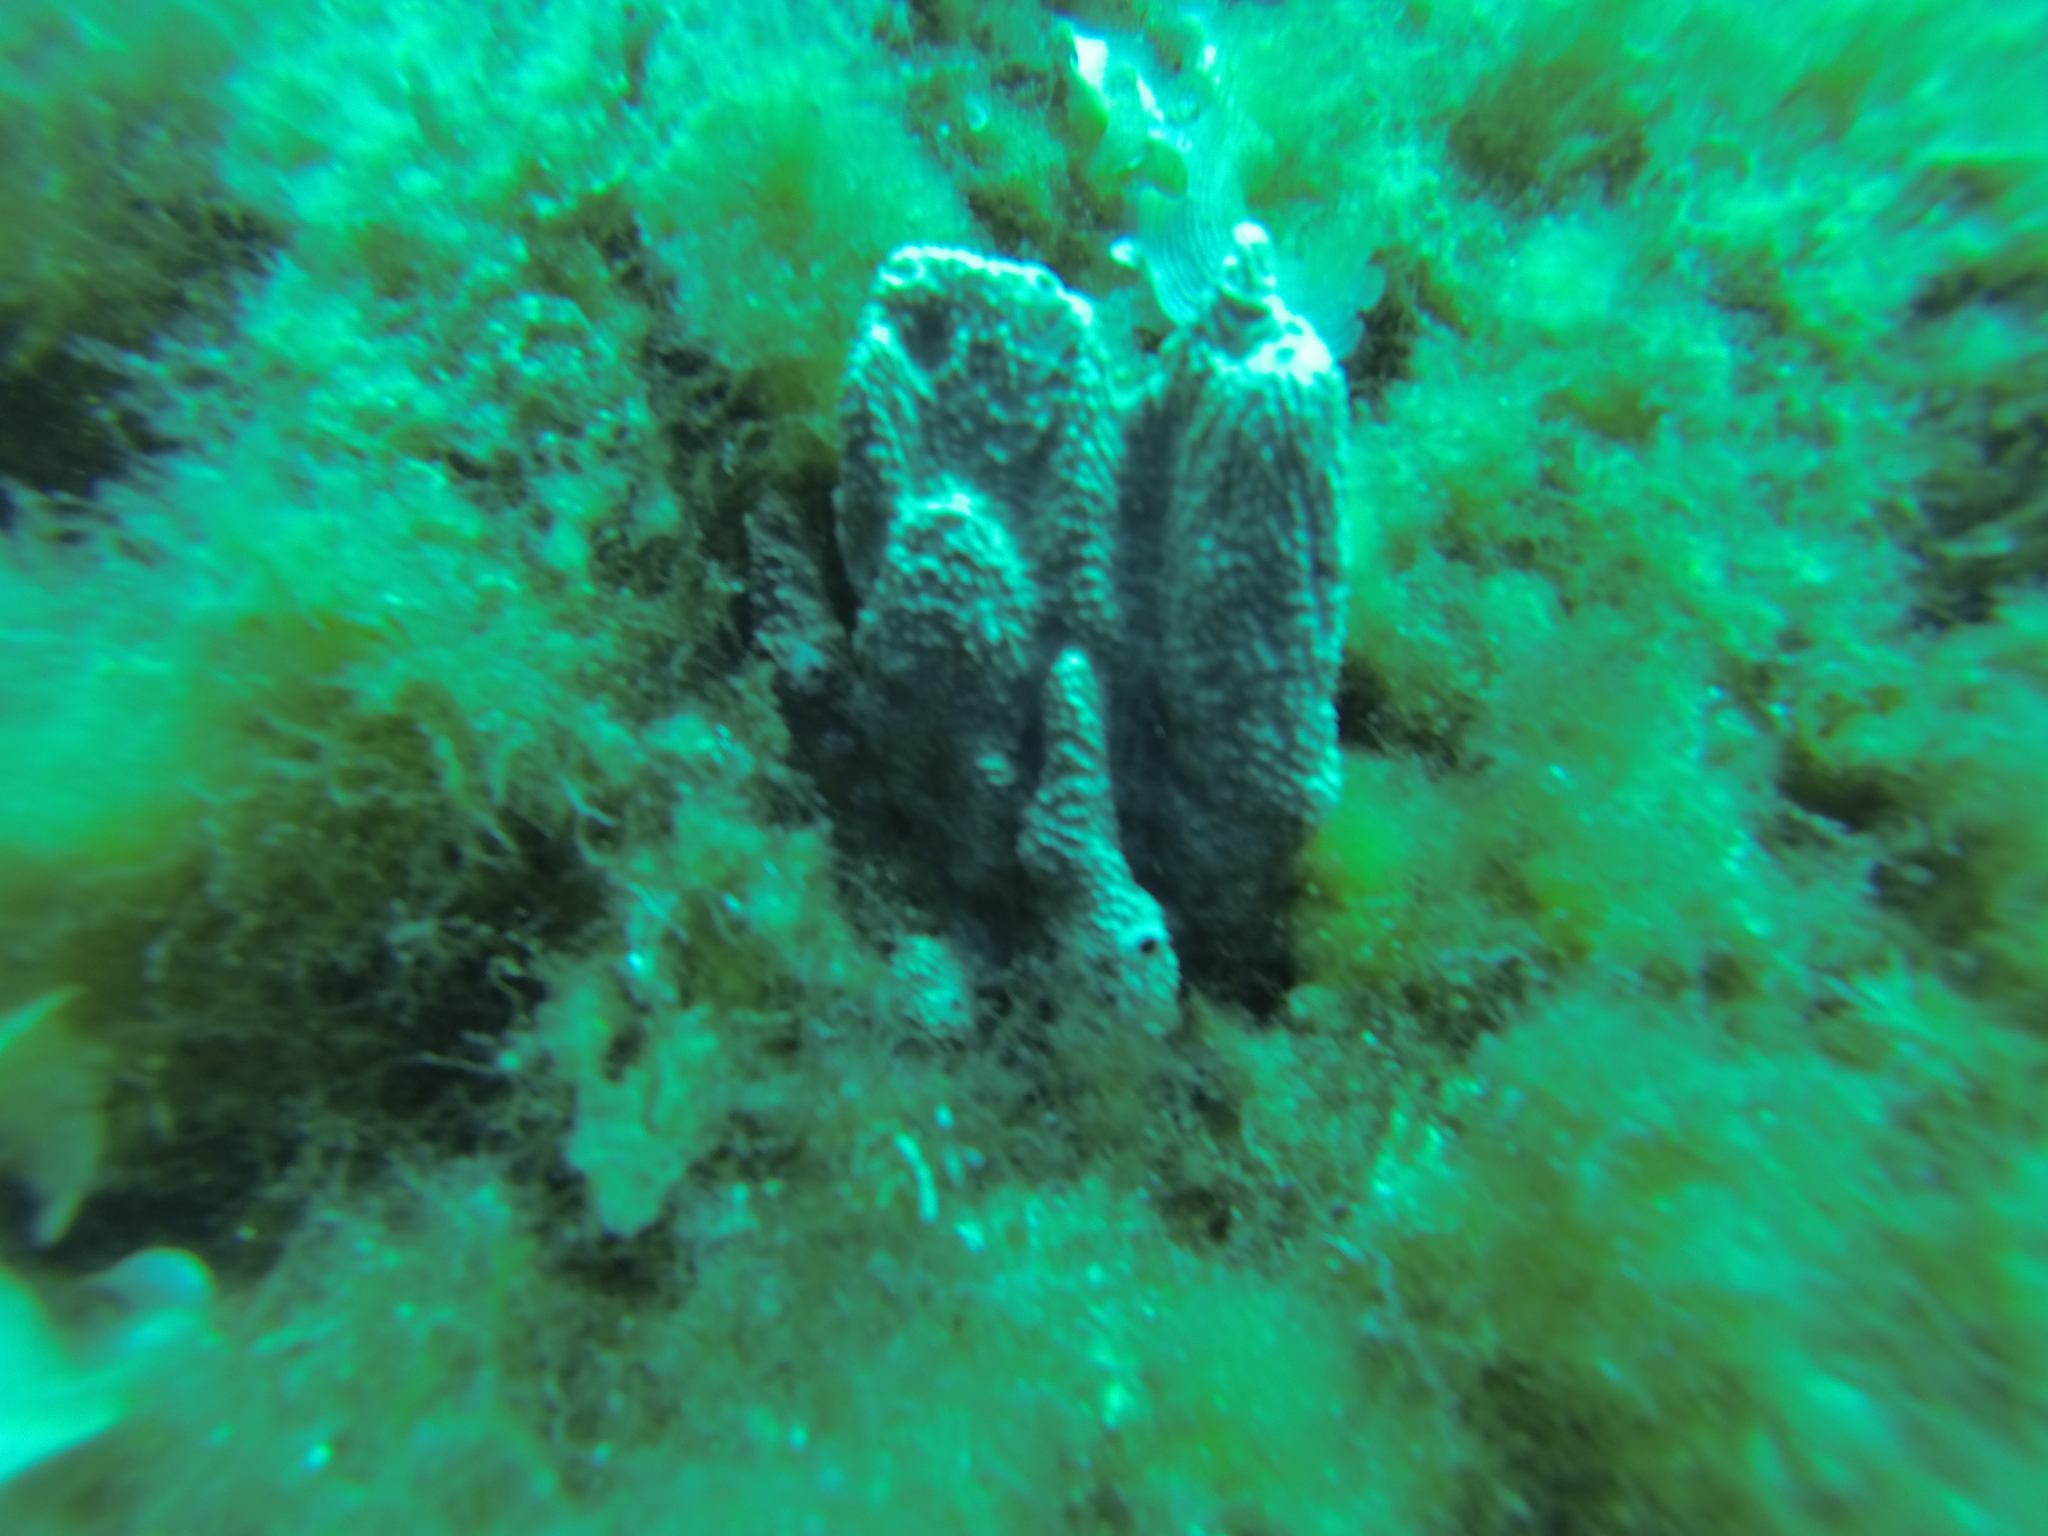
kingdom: Animalia
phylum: Porifera
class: Demospongiae
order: Dictyoceratida
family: Irciniidae
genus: Sarcotragus
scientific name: Sarcotragus fasciculatus
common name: Stinker sponge
